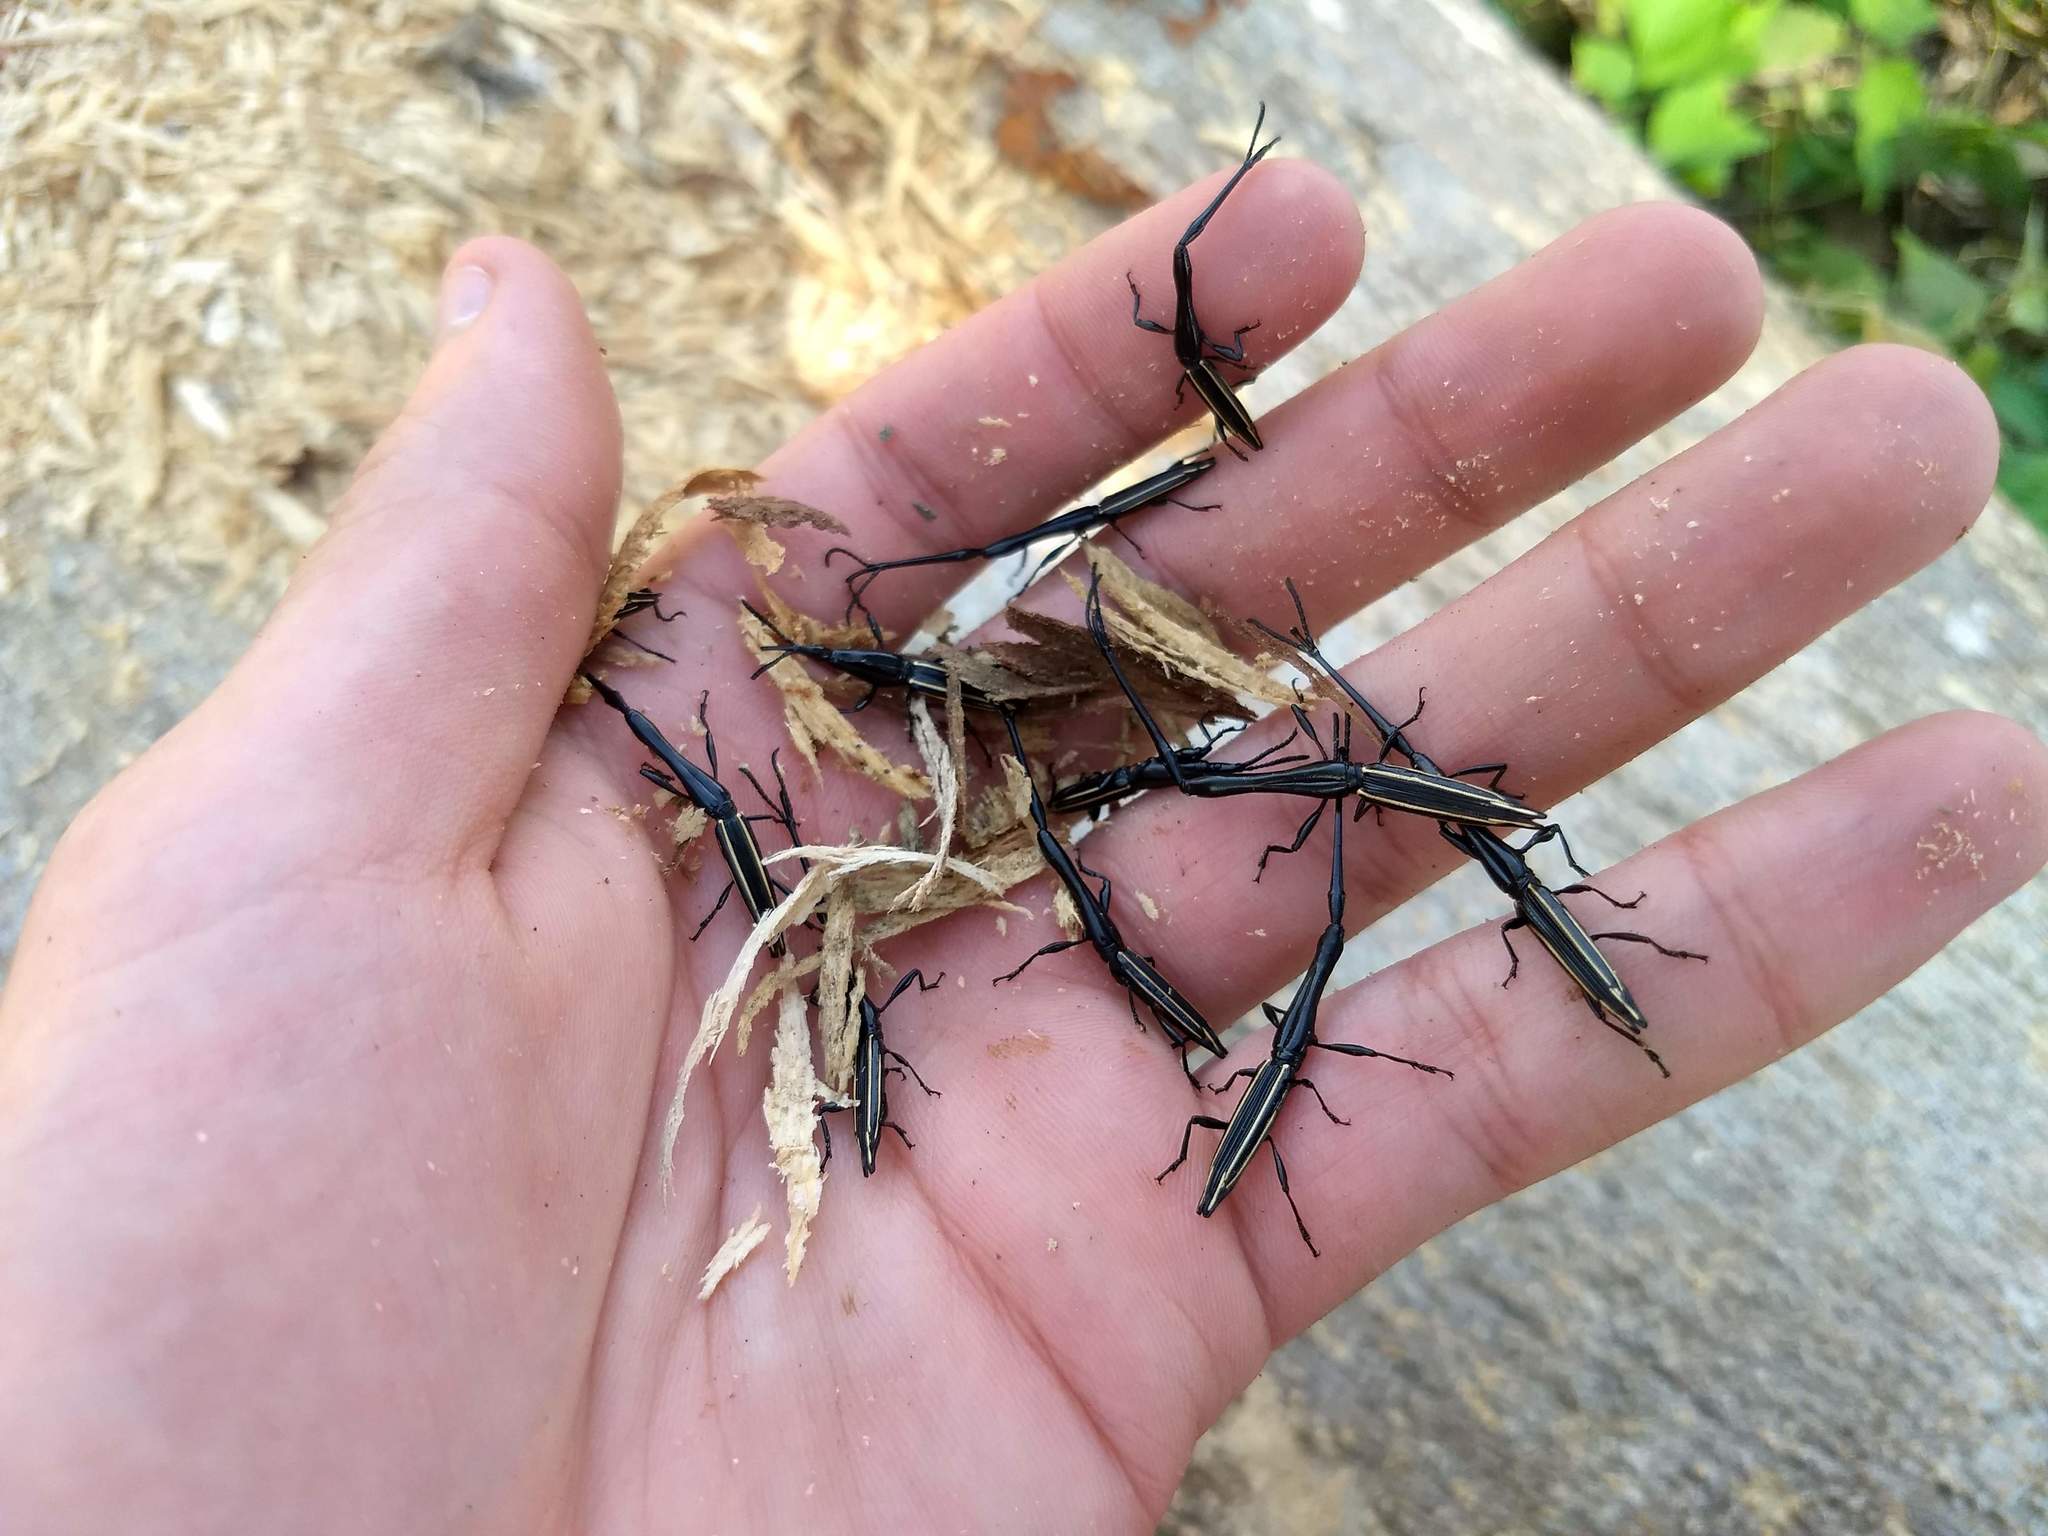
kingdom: Animalia
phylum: Arthropoda
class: Insecta
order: Coleoptera
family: Brentidae
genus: Brentus
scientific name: Brentus anchorago
